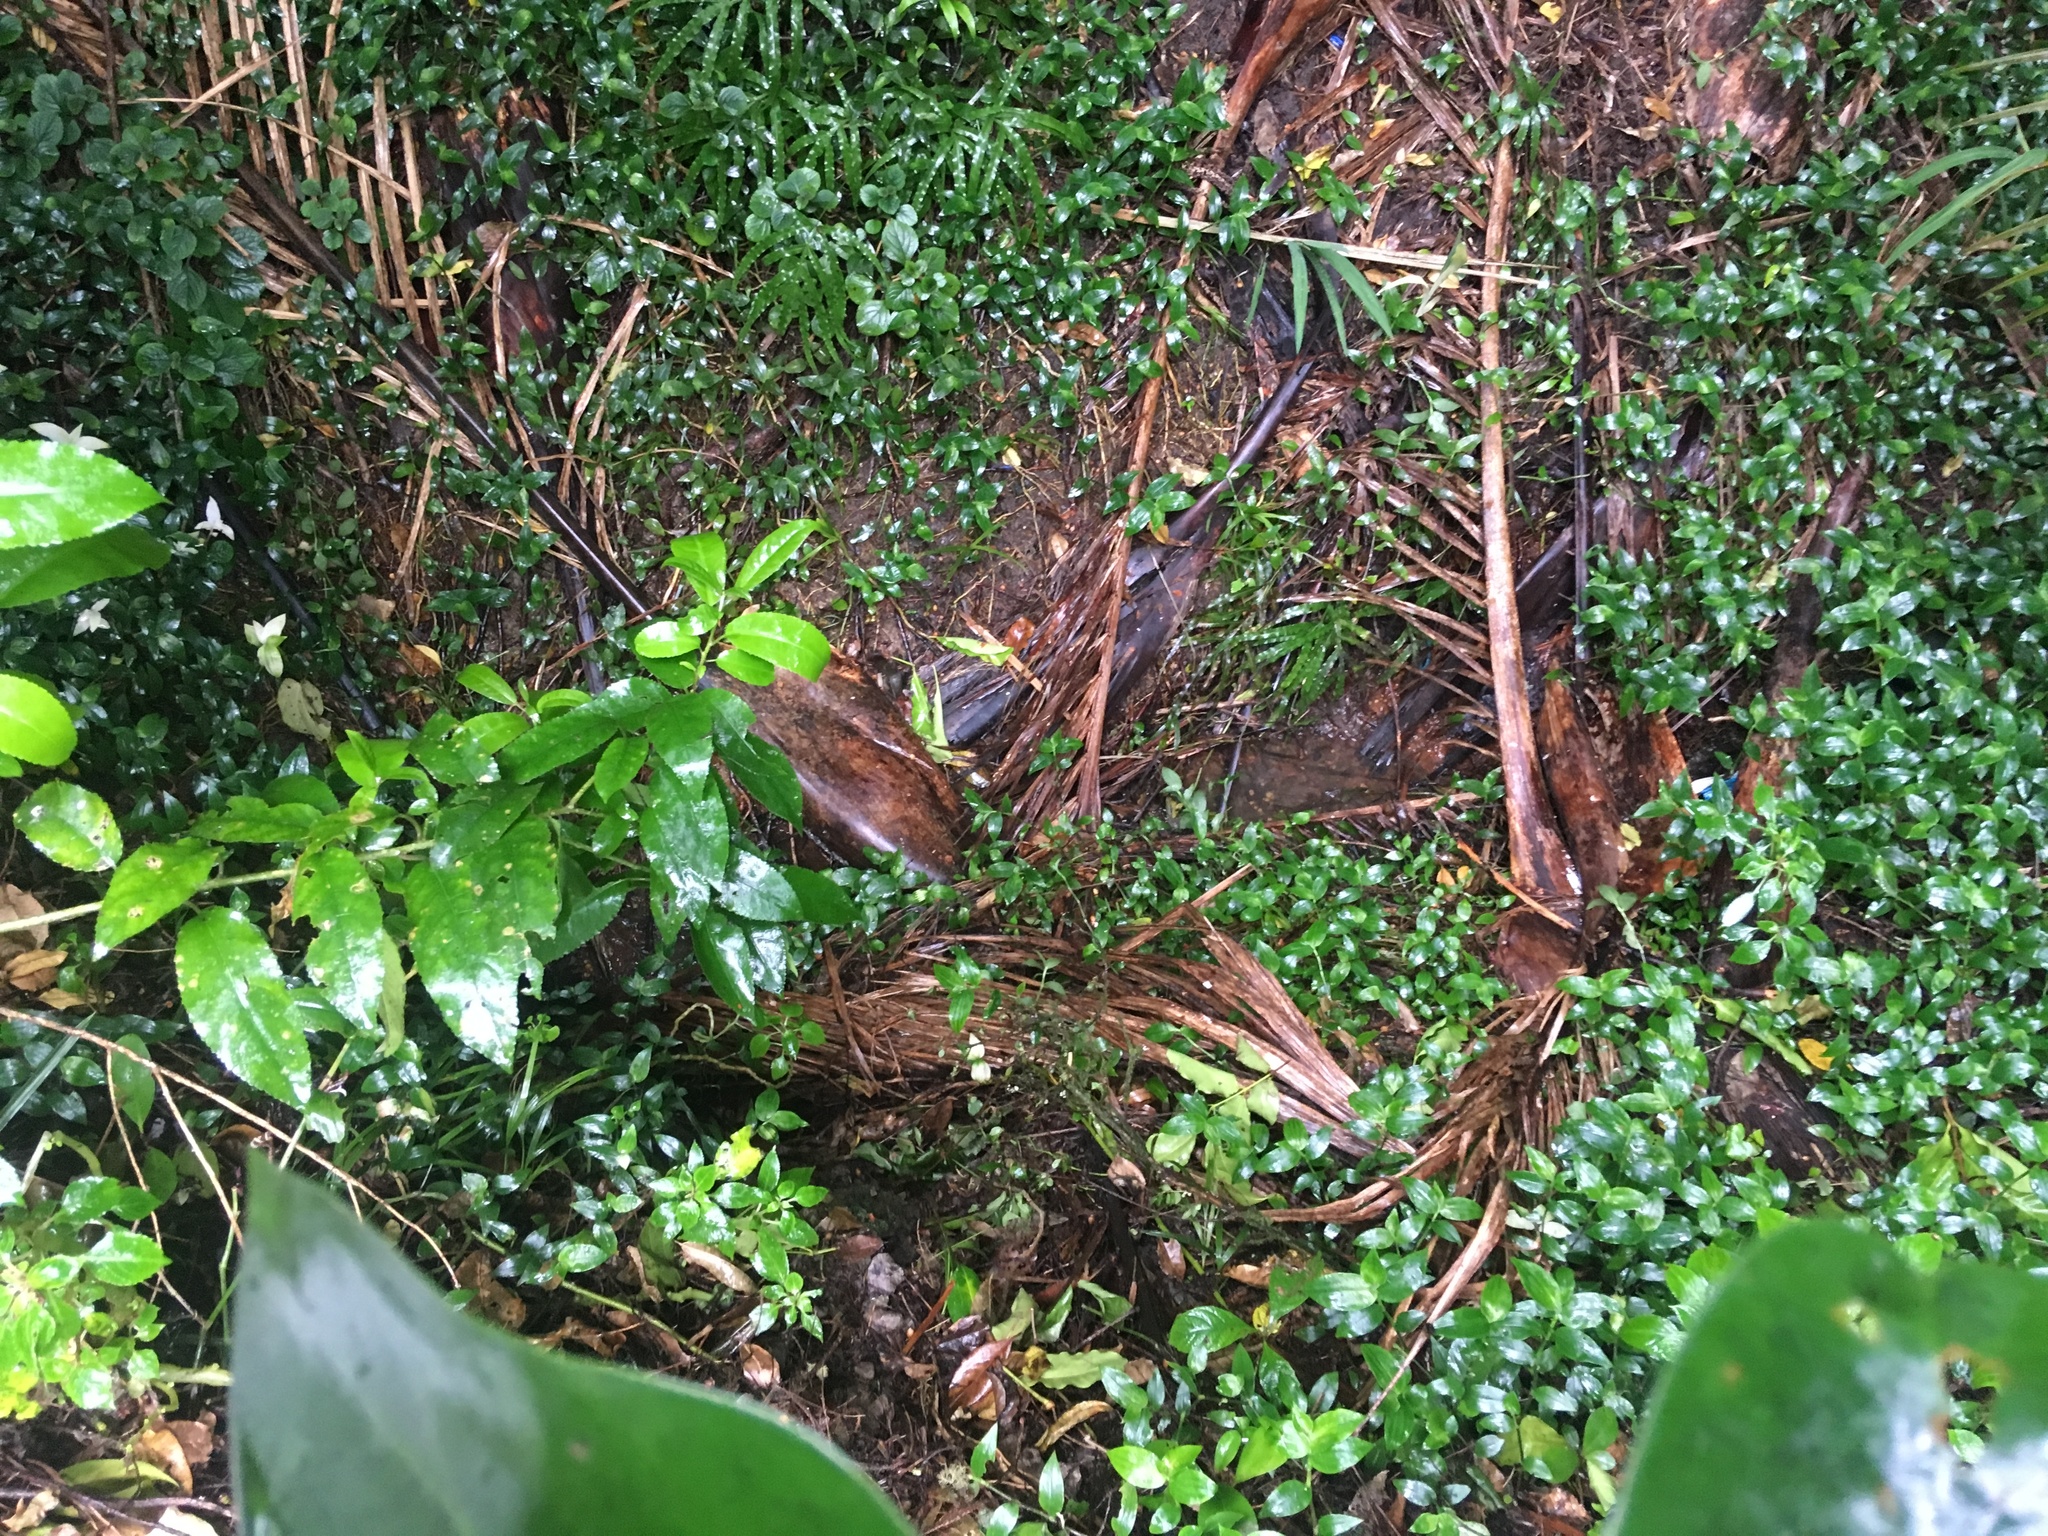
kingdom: Plantae
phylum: Tracheophyta
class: Liliopsida
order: Commelinales
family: Commelinaceae
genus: Tradescantia
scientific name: Tradescantia fluminensis
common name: Wandering-jew
